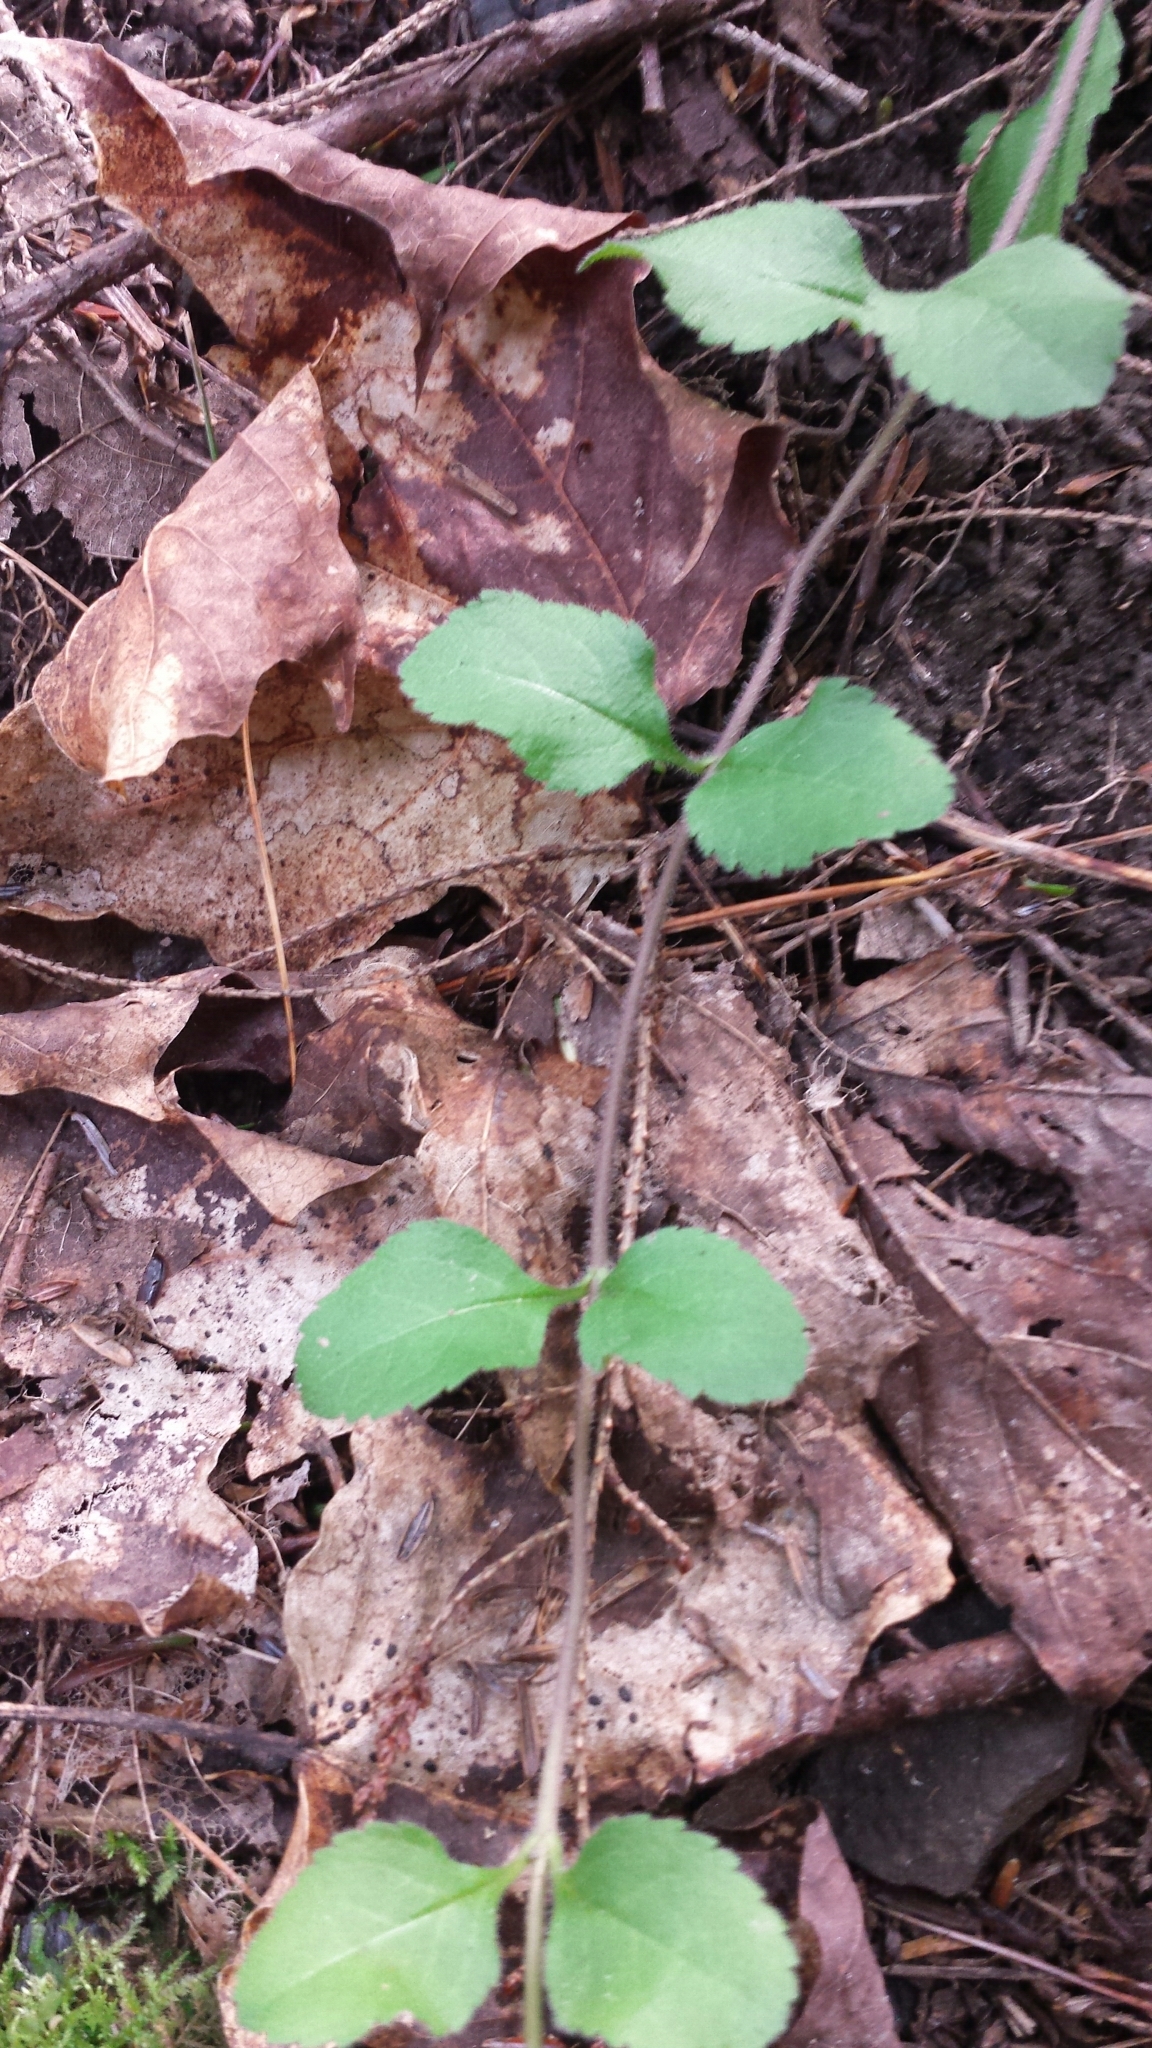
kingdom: Plantae
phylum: Tracheophyta
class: Magnoliopsida
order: Lamiales
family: Plantaginaceae
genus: Veronica
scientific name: Veronica officinalis
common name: Common speedwell
